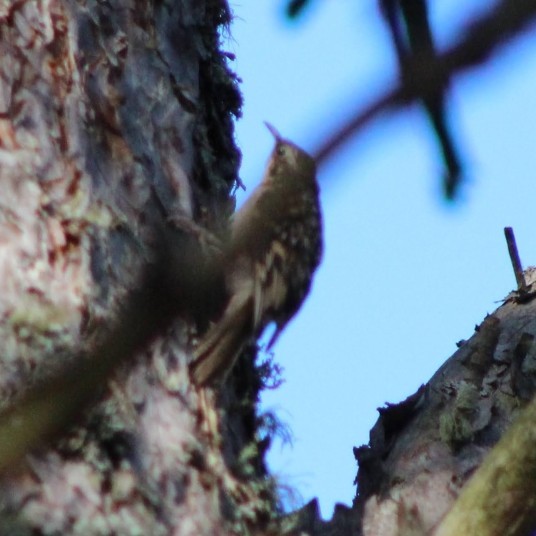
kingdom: Animalia
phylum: Chordata
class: Aves
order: Passeriformes
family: Certhiidae
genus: Certhia
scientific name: Certhia familiaris
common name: Eurasian treecreeper
